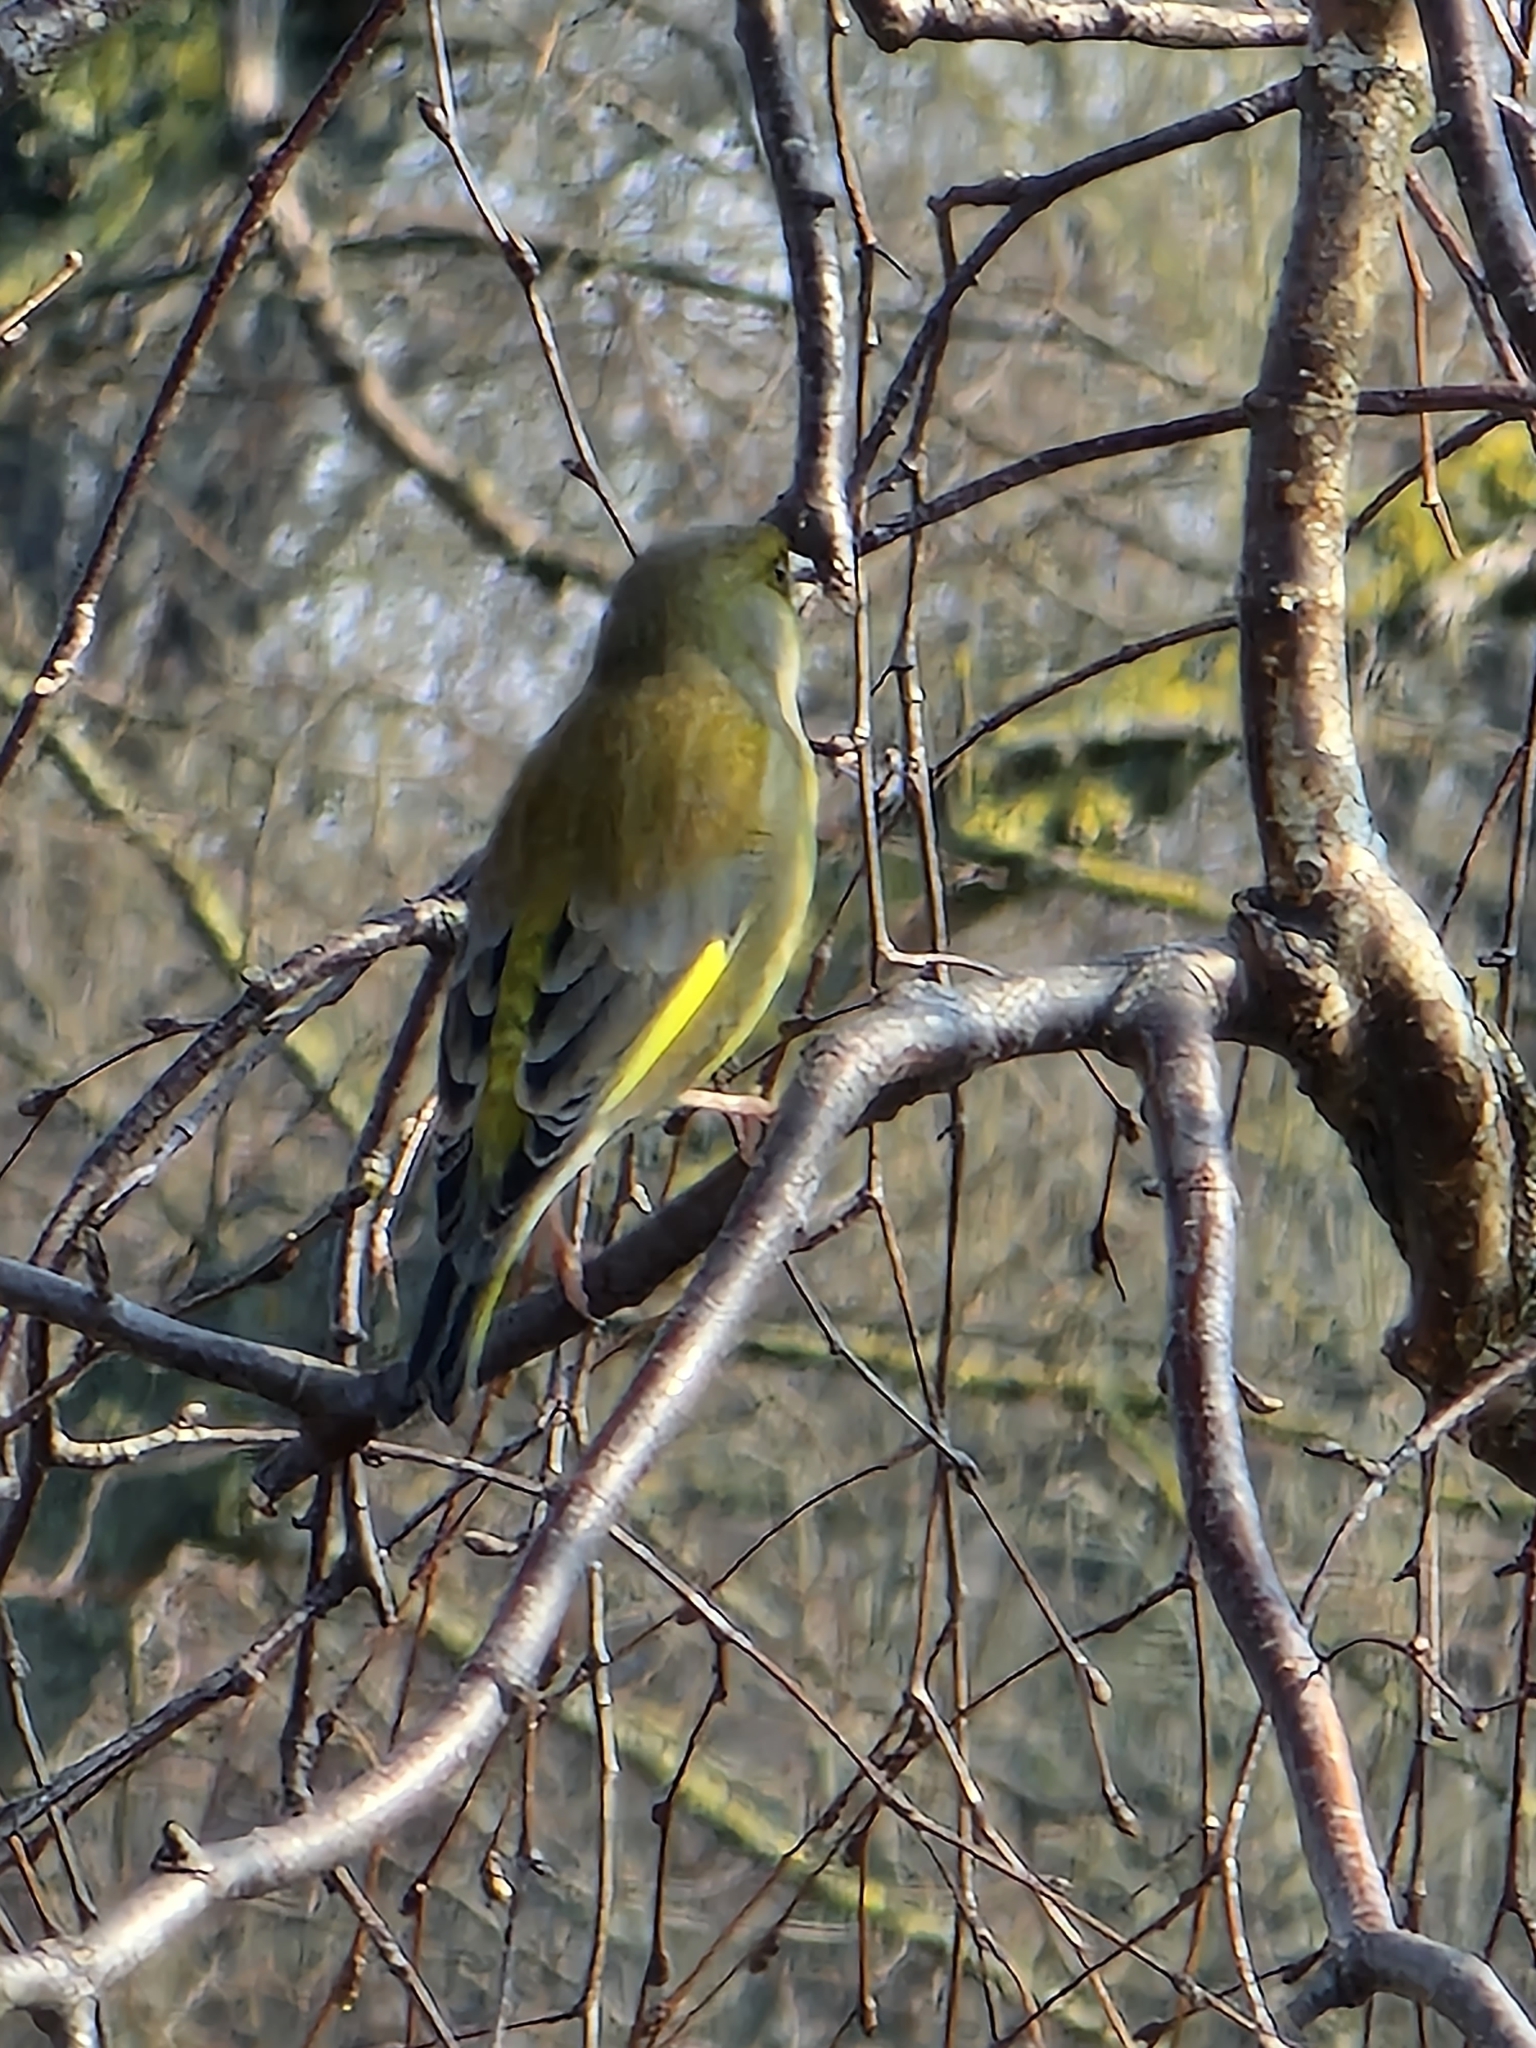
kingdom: Plantae
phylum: Tracheophyta
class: Liliopsida
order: Poales
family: Poaceae
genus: Chloris
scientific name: Chloris chloris
